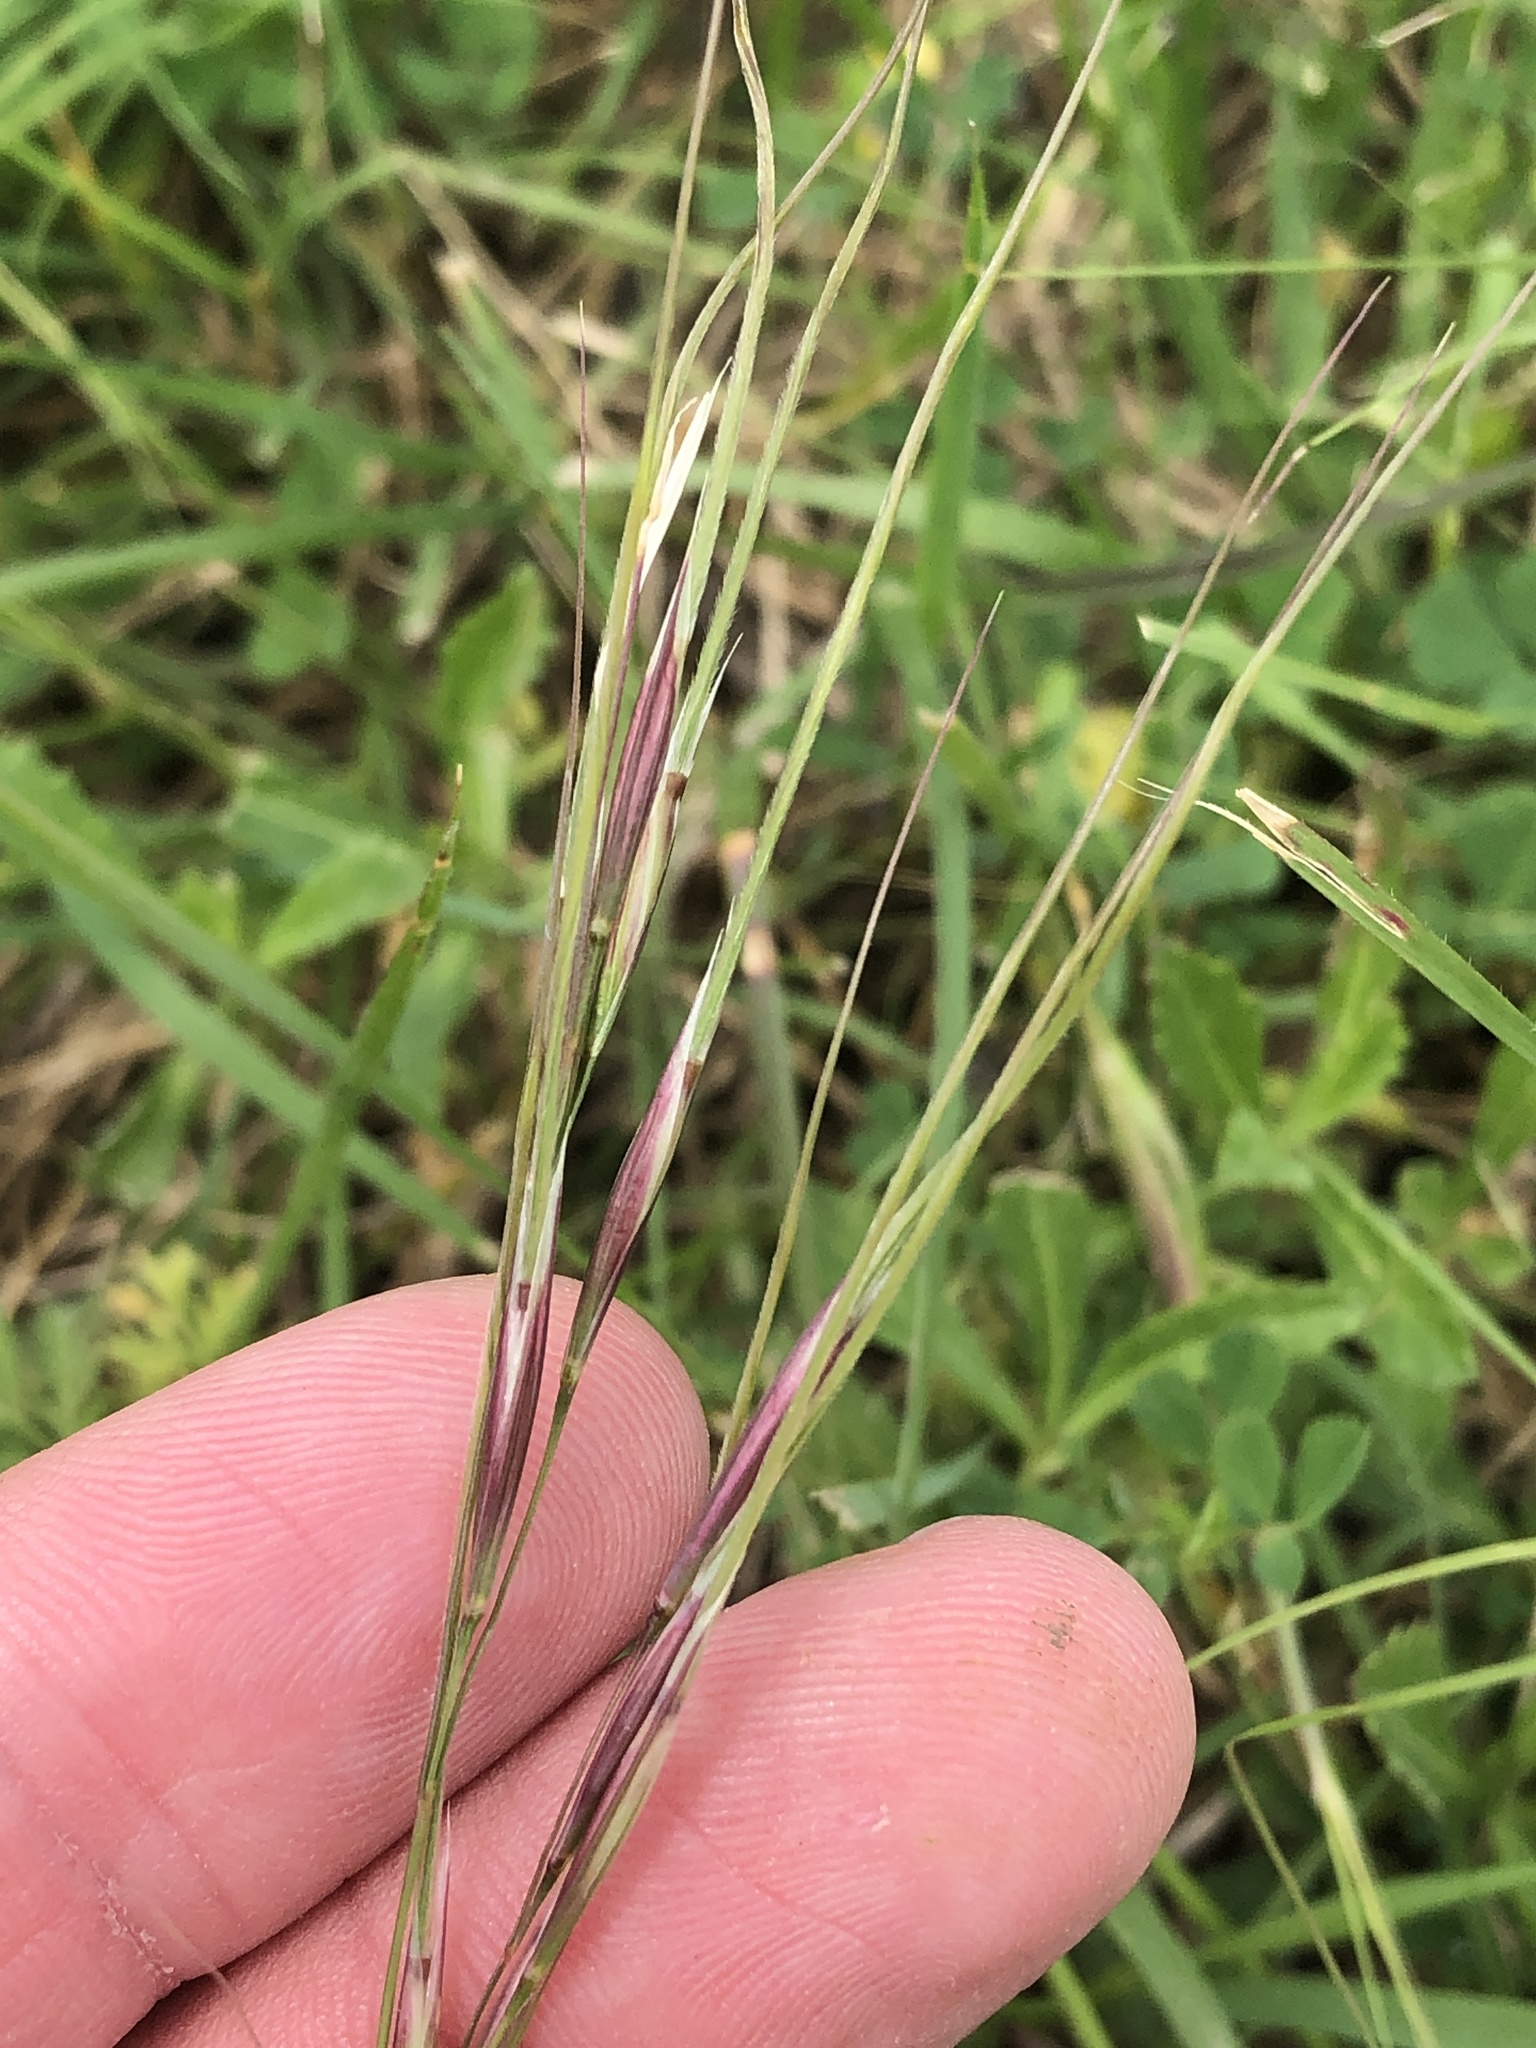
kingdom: Plantae
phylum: Tracheophyta
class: Liliopsida
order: Poales
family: Poaceae
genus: Nassella
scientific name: Nassella leucotricha
